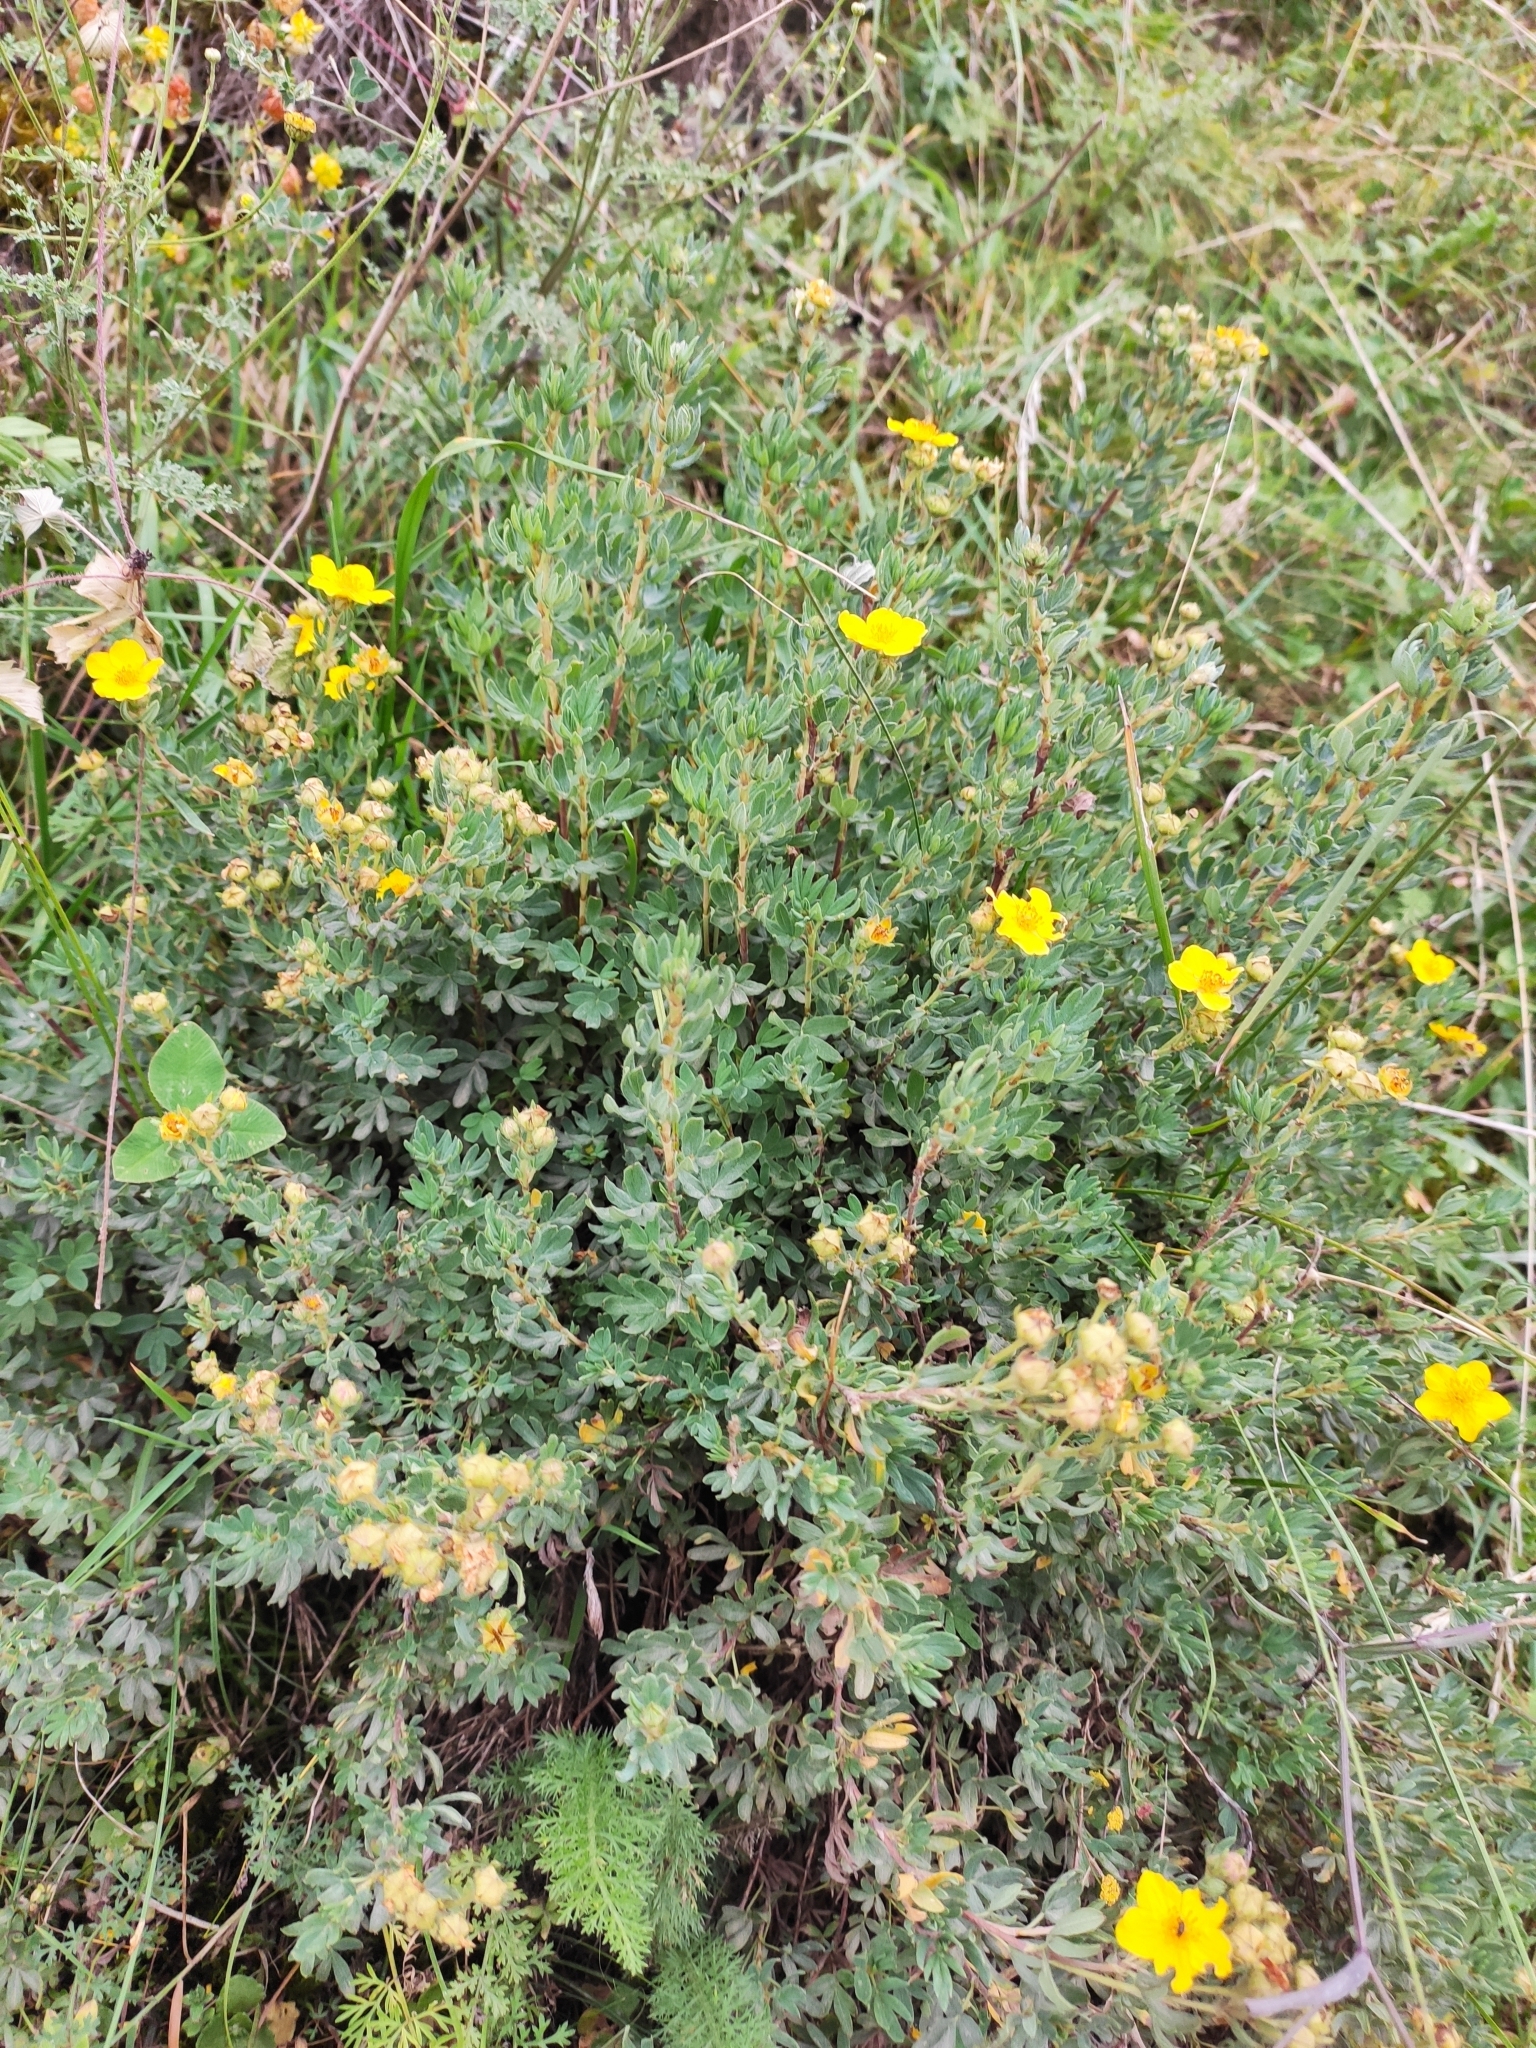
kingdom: Plantae
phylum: Tracheophyta
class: Magnoliopsida
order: Rosales
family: Rosaceae
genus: Dasiphora
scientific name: Dasiphora fruticosa
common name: Shrubby cinquefoil
